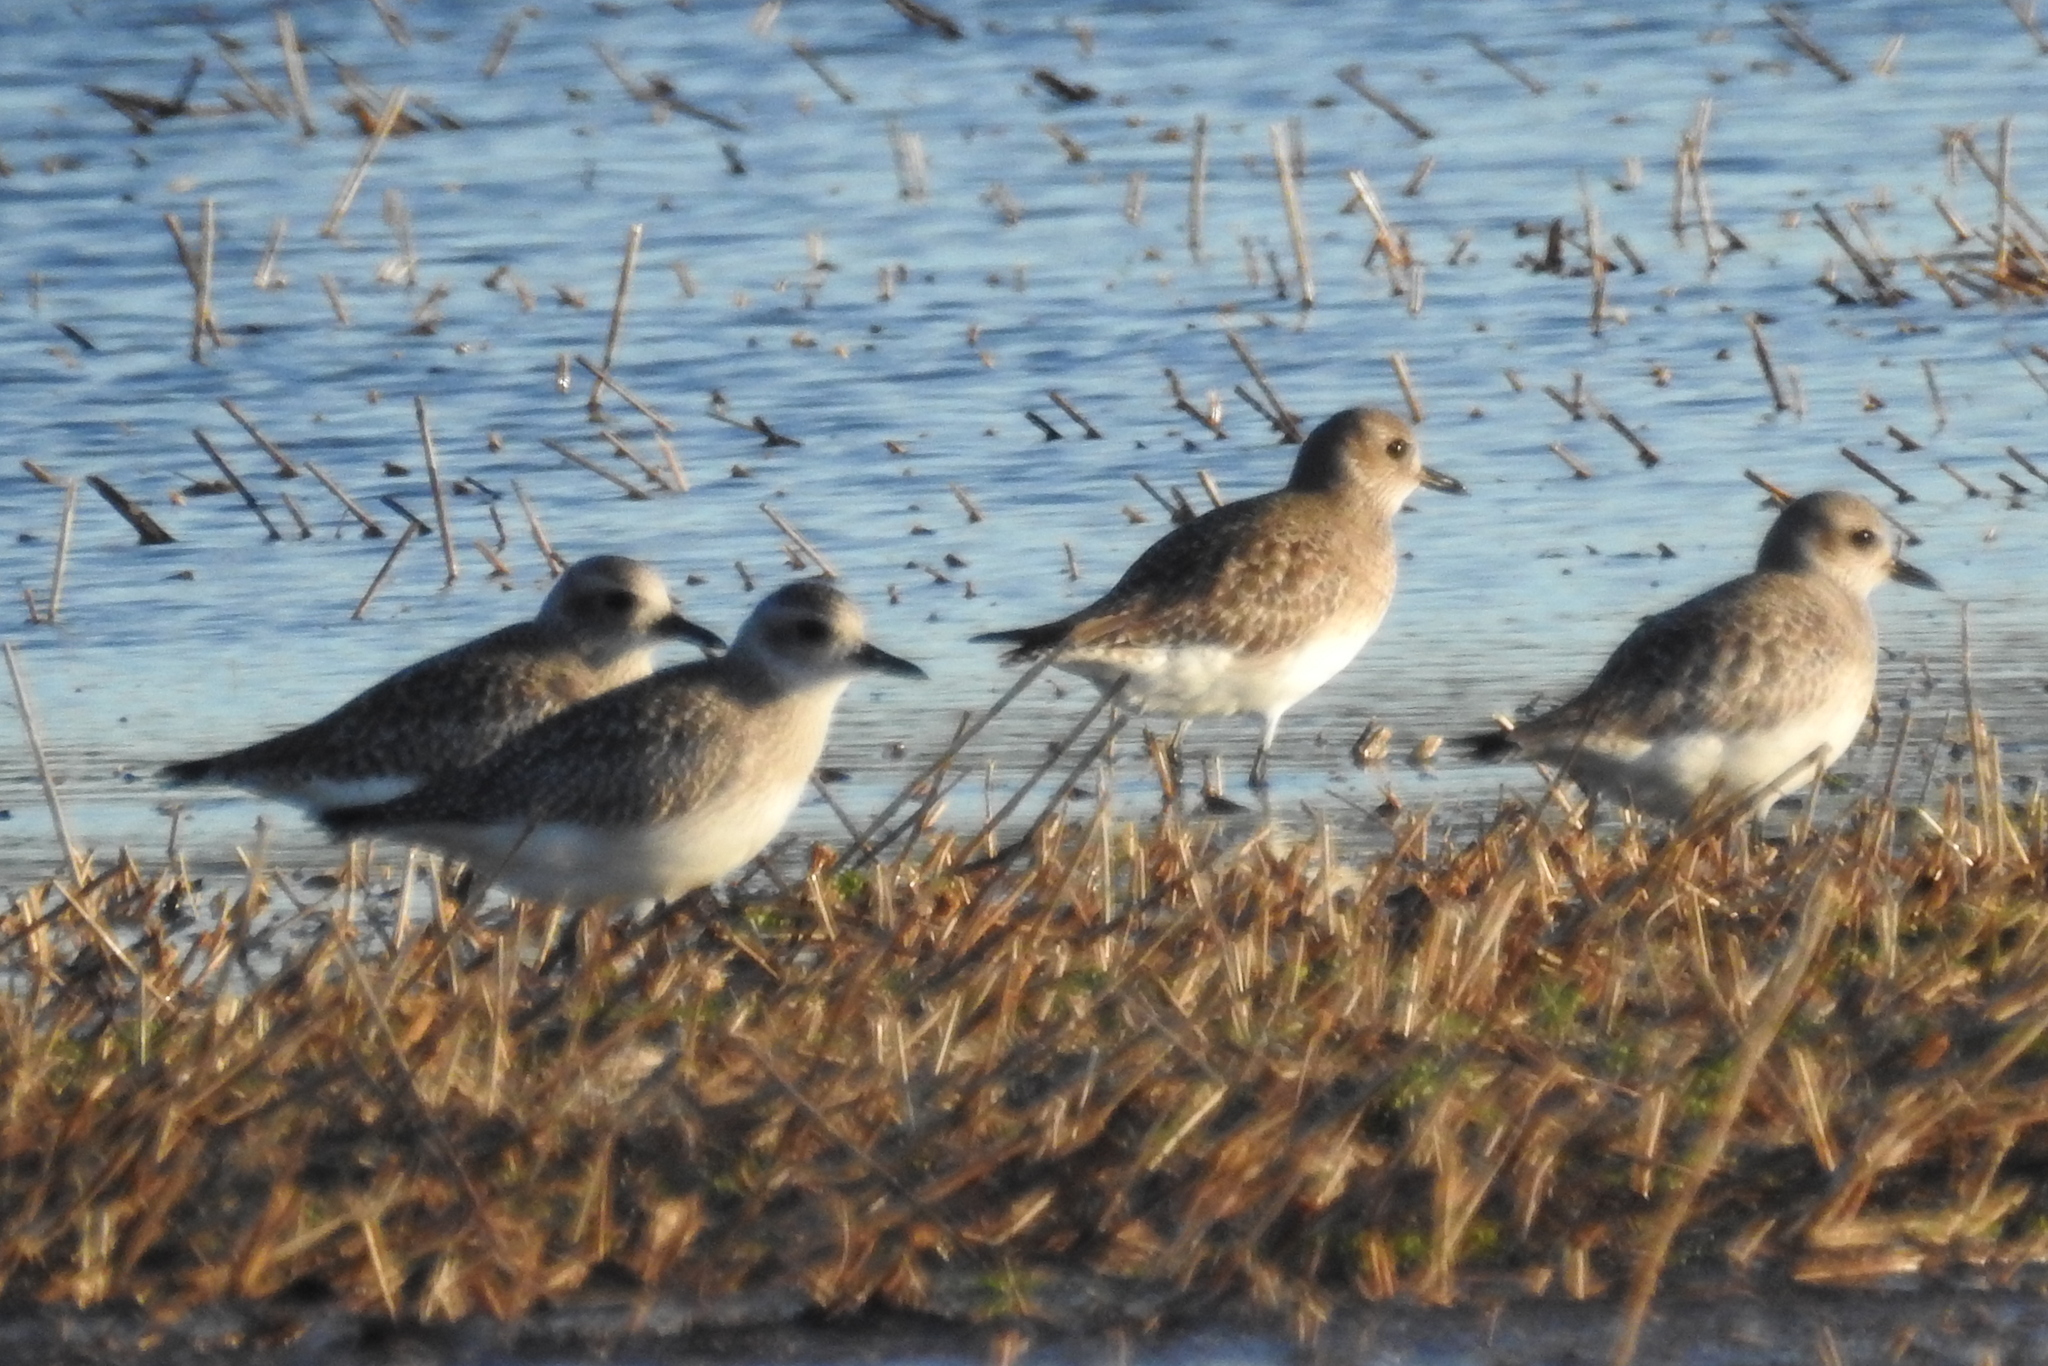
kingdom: Animalia
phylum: Chordata
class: Aves
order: Charadriiformes
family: Charadriidae
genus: Pluvialis
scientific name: Pluvialis squatarola
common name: Grey plover
